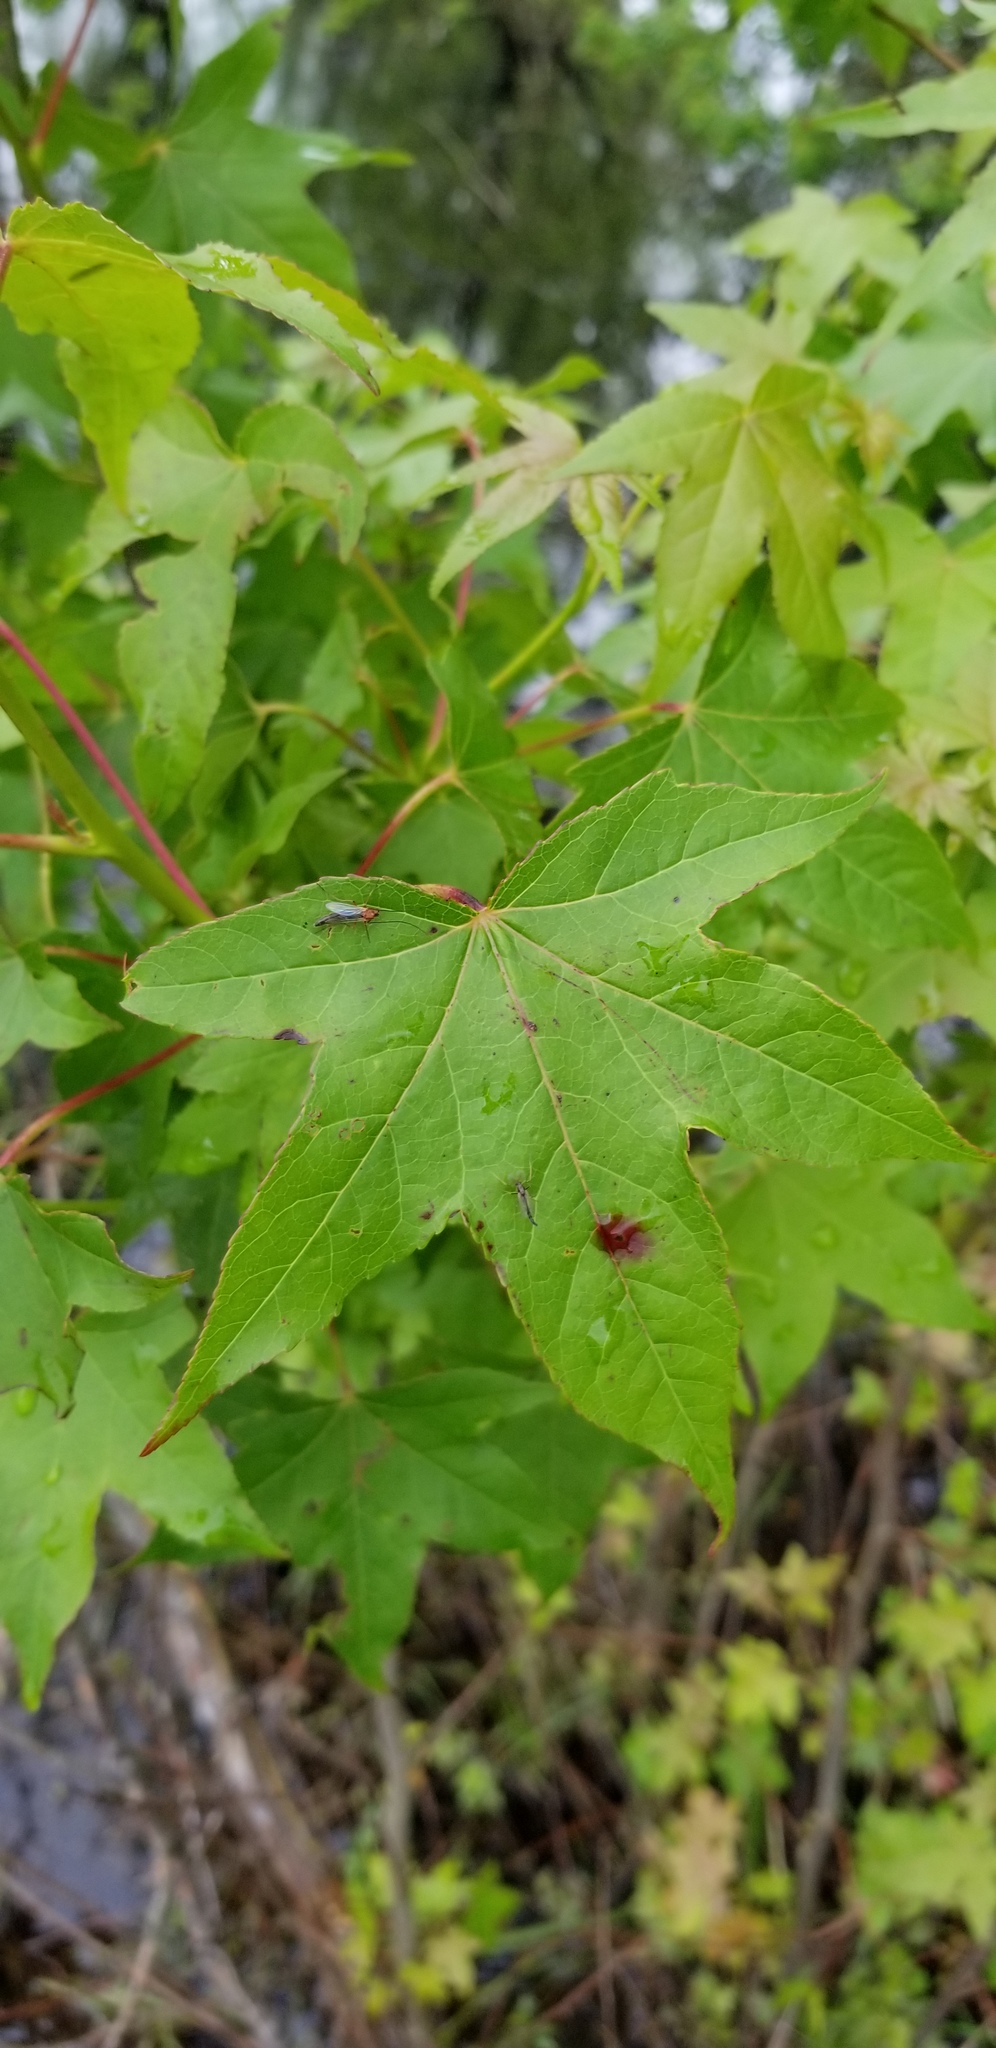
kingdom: Plantae
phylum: Tracheophyta
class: Magnoliopsida
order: Saxifragales
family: Altingiaceae
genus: Liquidambar
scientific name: Liquidambar styraciflua
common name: Sweet gum
